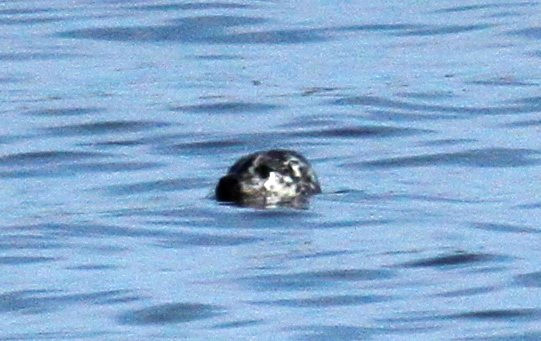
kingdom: Animalia
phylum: Chordata
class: Mammalia
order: Carnivora
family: Phocidae
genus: Phoca
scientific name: Phoca vitulina
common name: Harbor seal
